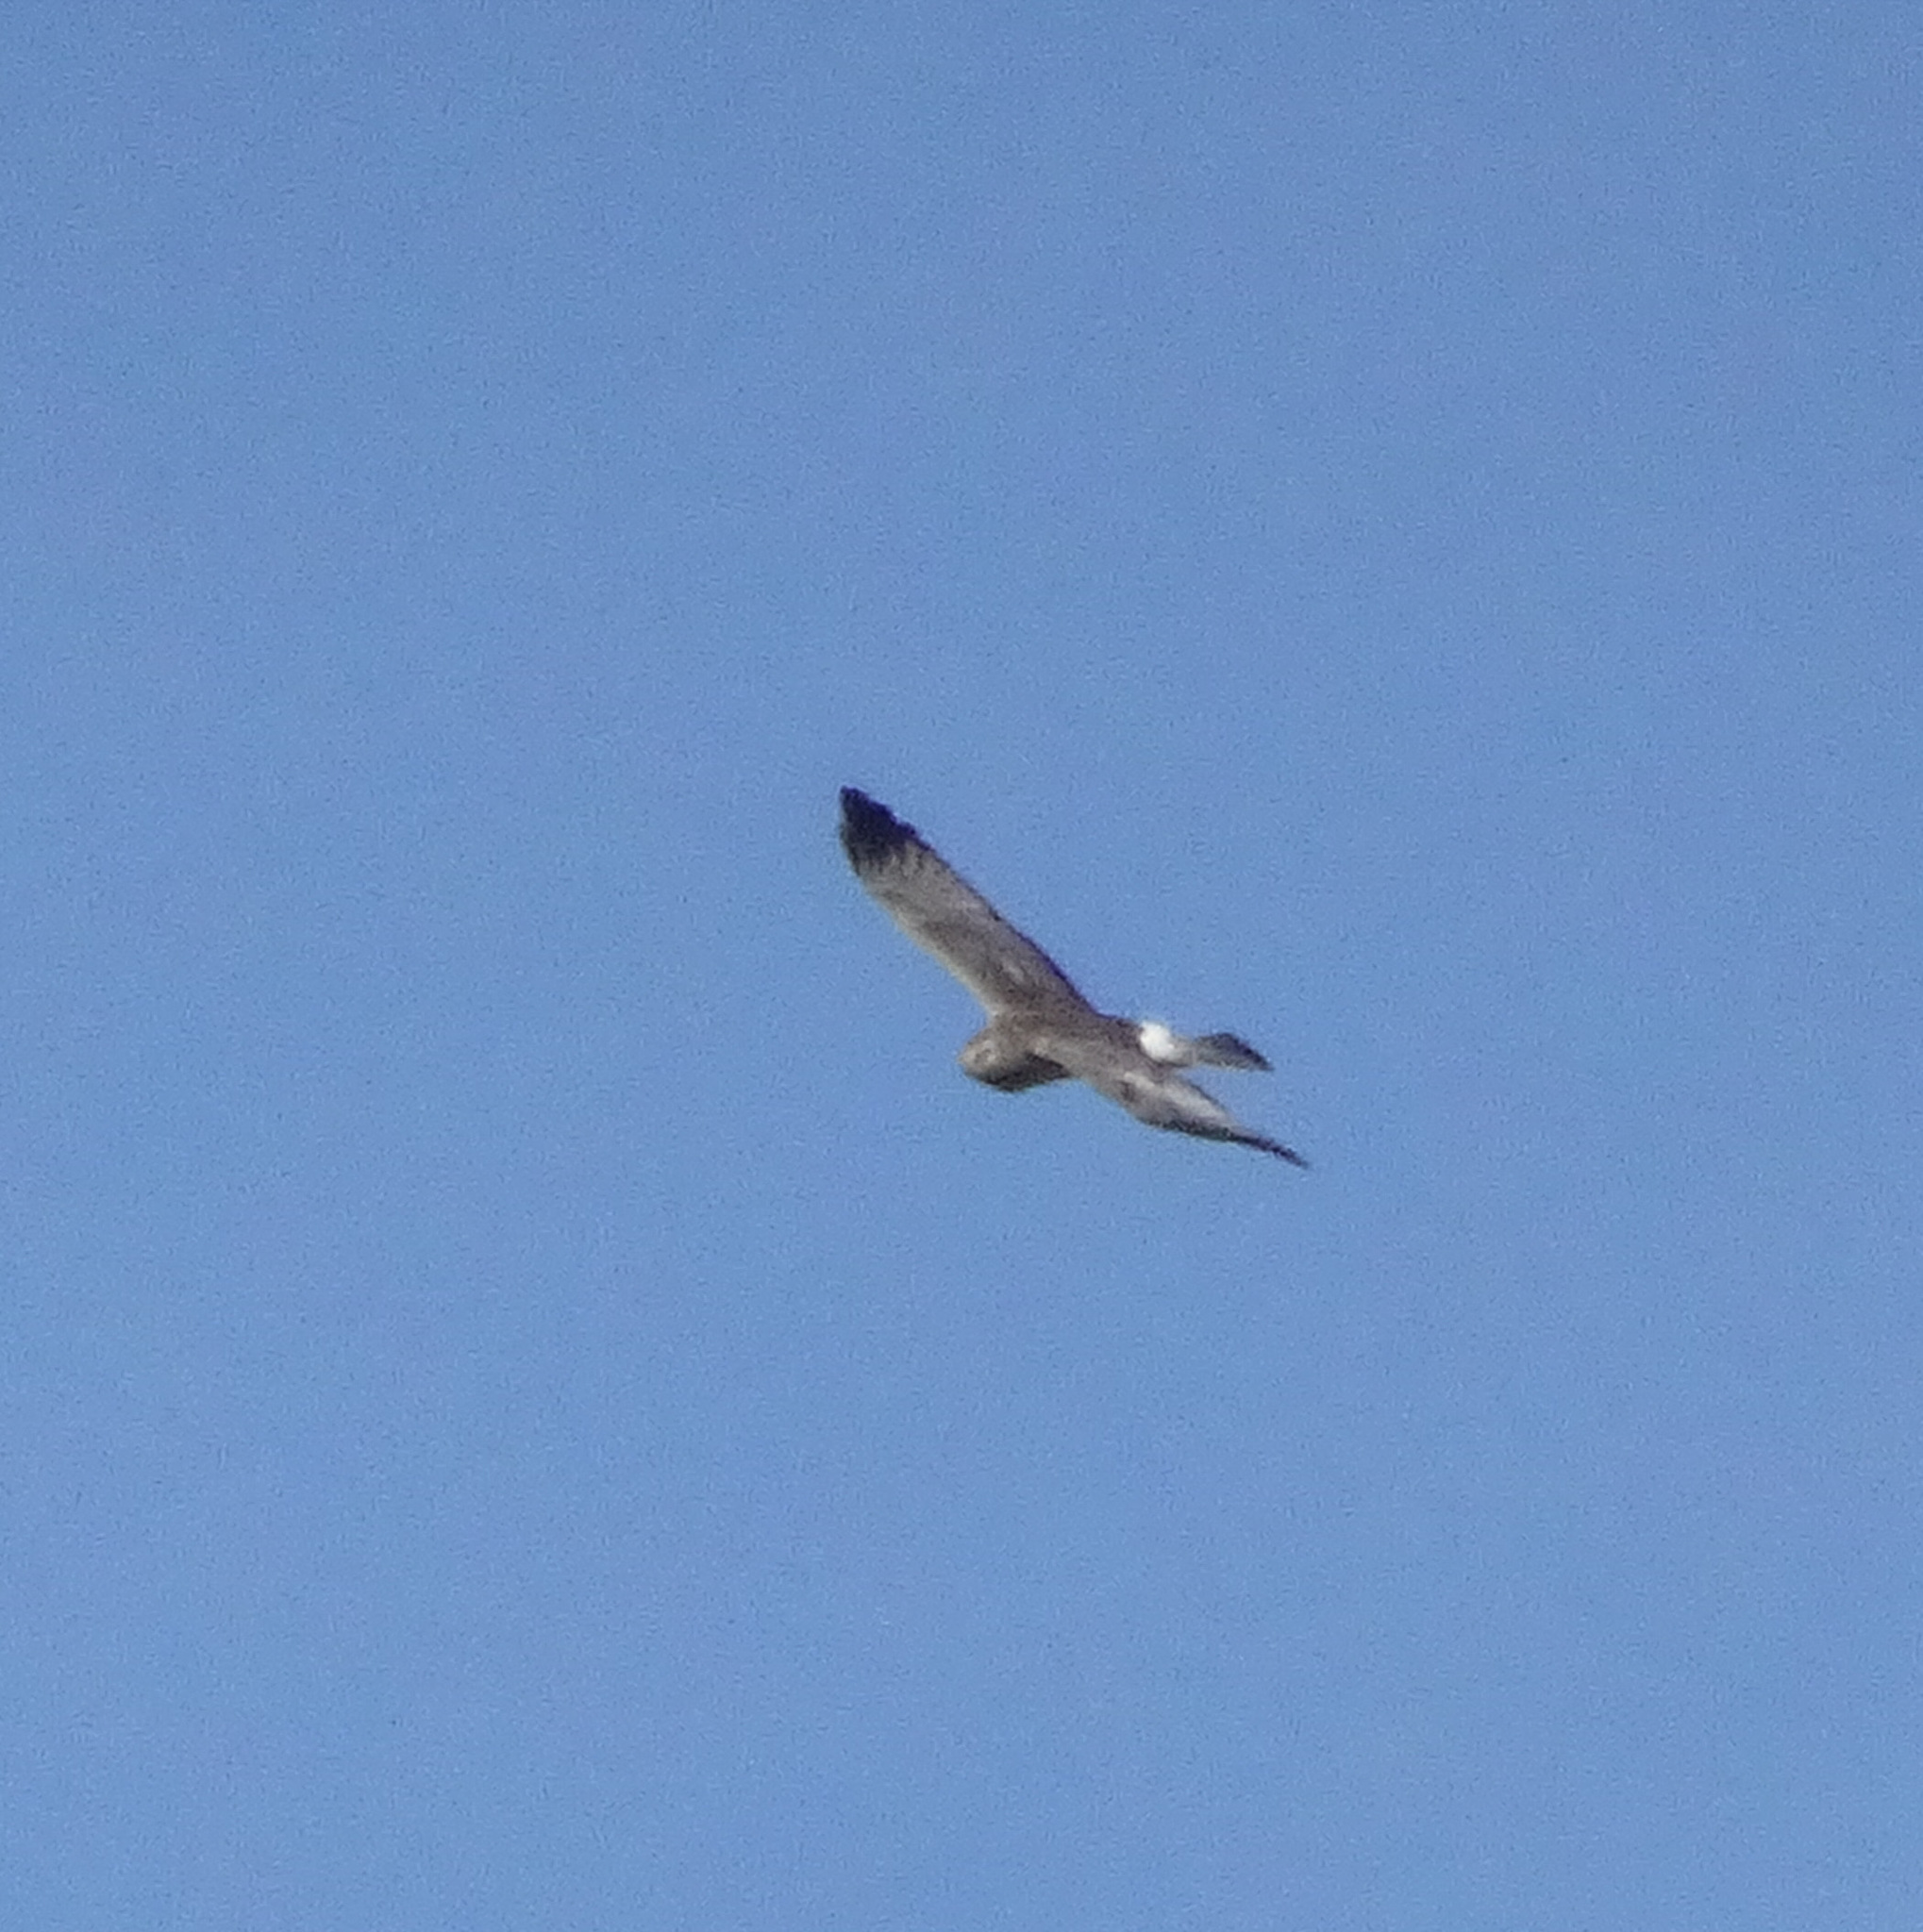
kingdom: Animalia
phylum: Chordata
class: Aves
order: Accipitriformes
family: Accipitridae
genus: Circus
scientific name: Circus cyaneus
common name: Hen harrier
